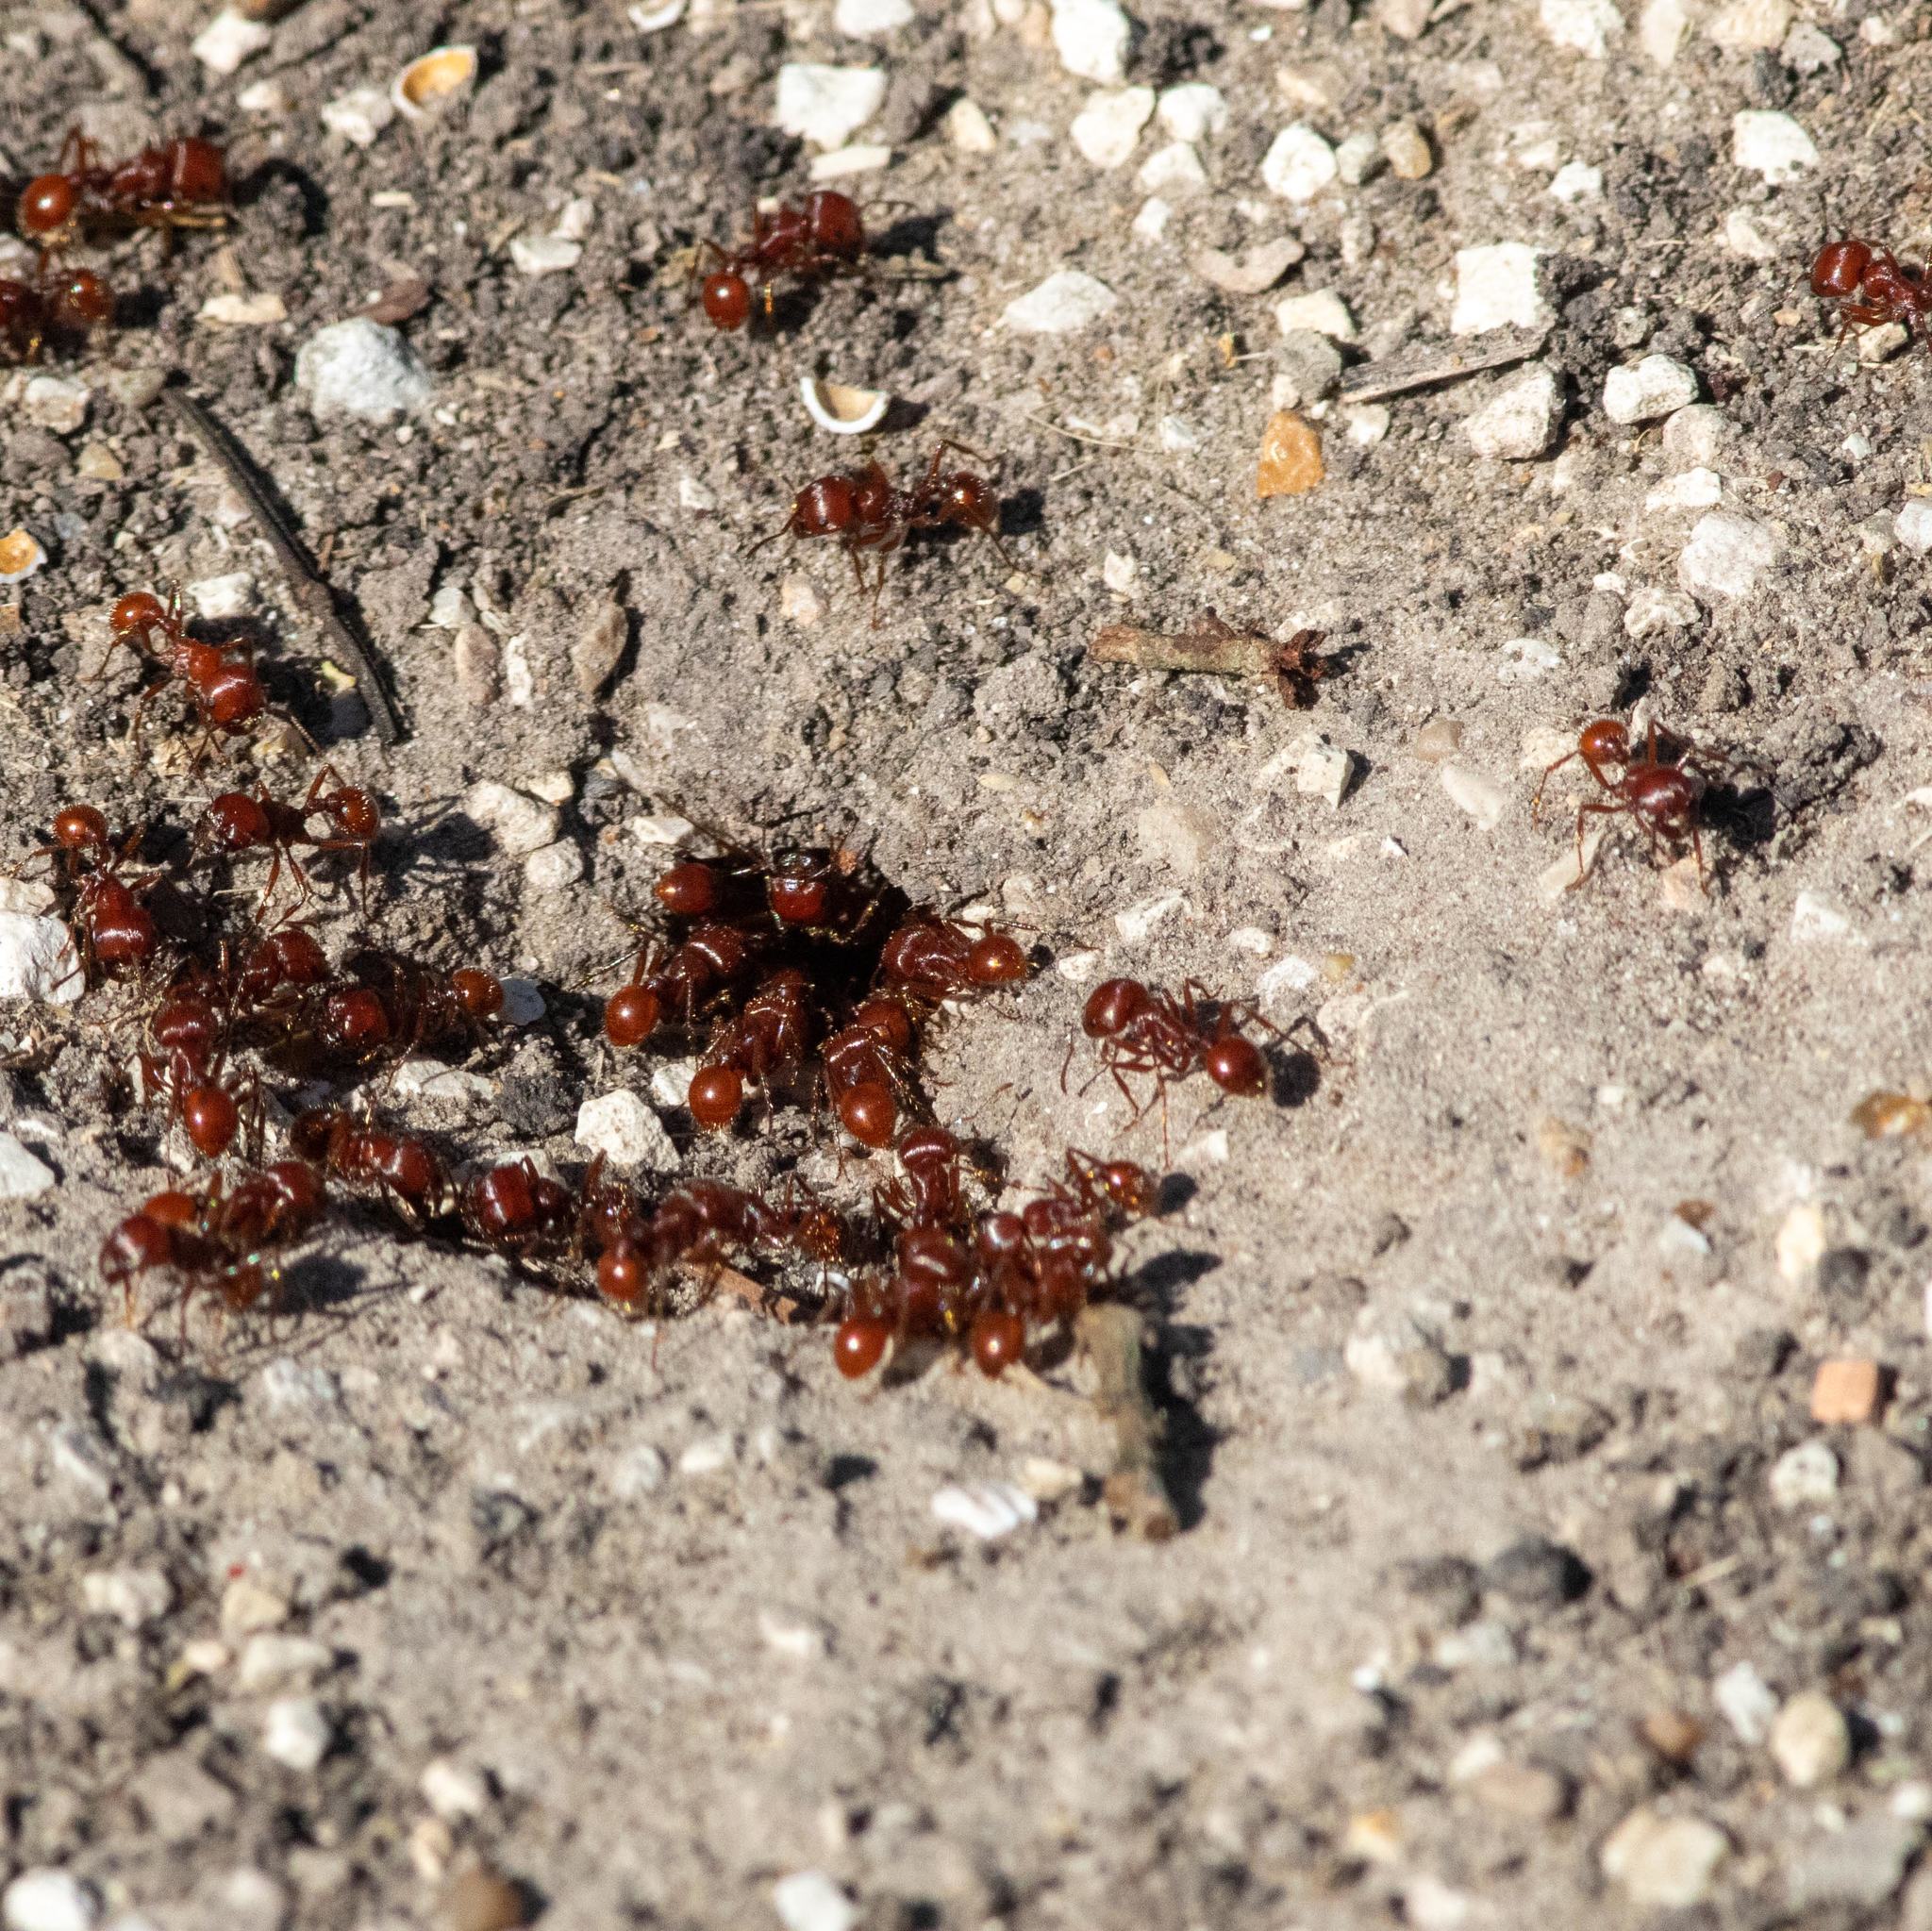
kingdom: Animalia
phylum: Arthropoda
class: Insecta
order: Hymenoptera
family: Formicidae
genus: Pogonomyrmex
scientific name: Pogonomyrmex barbatus
